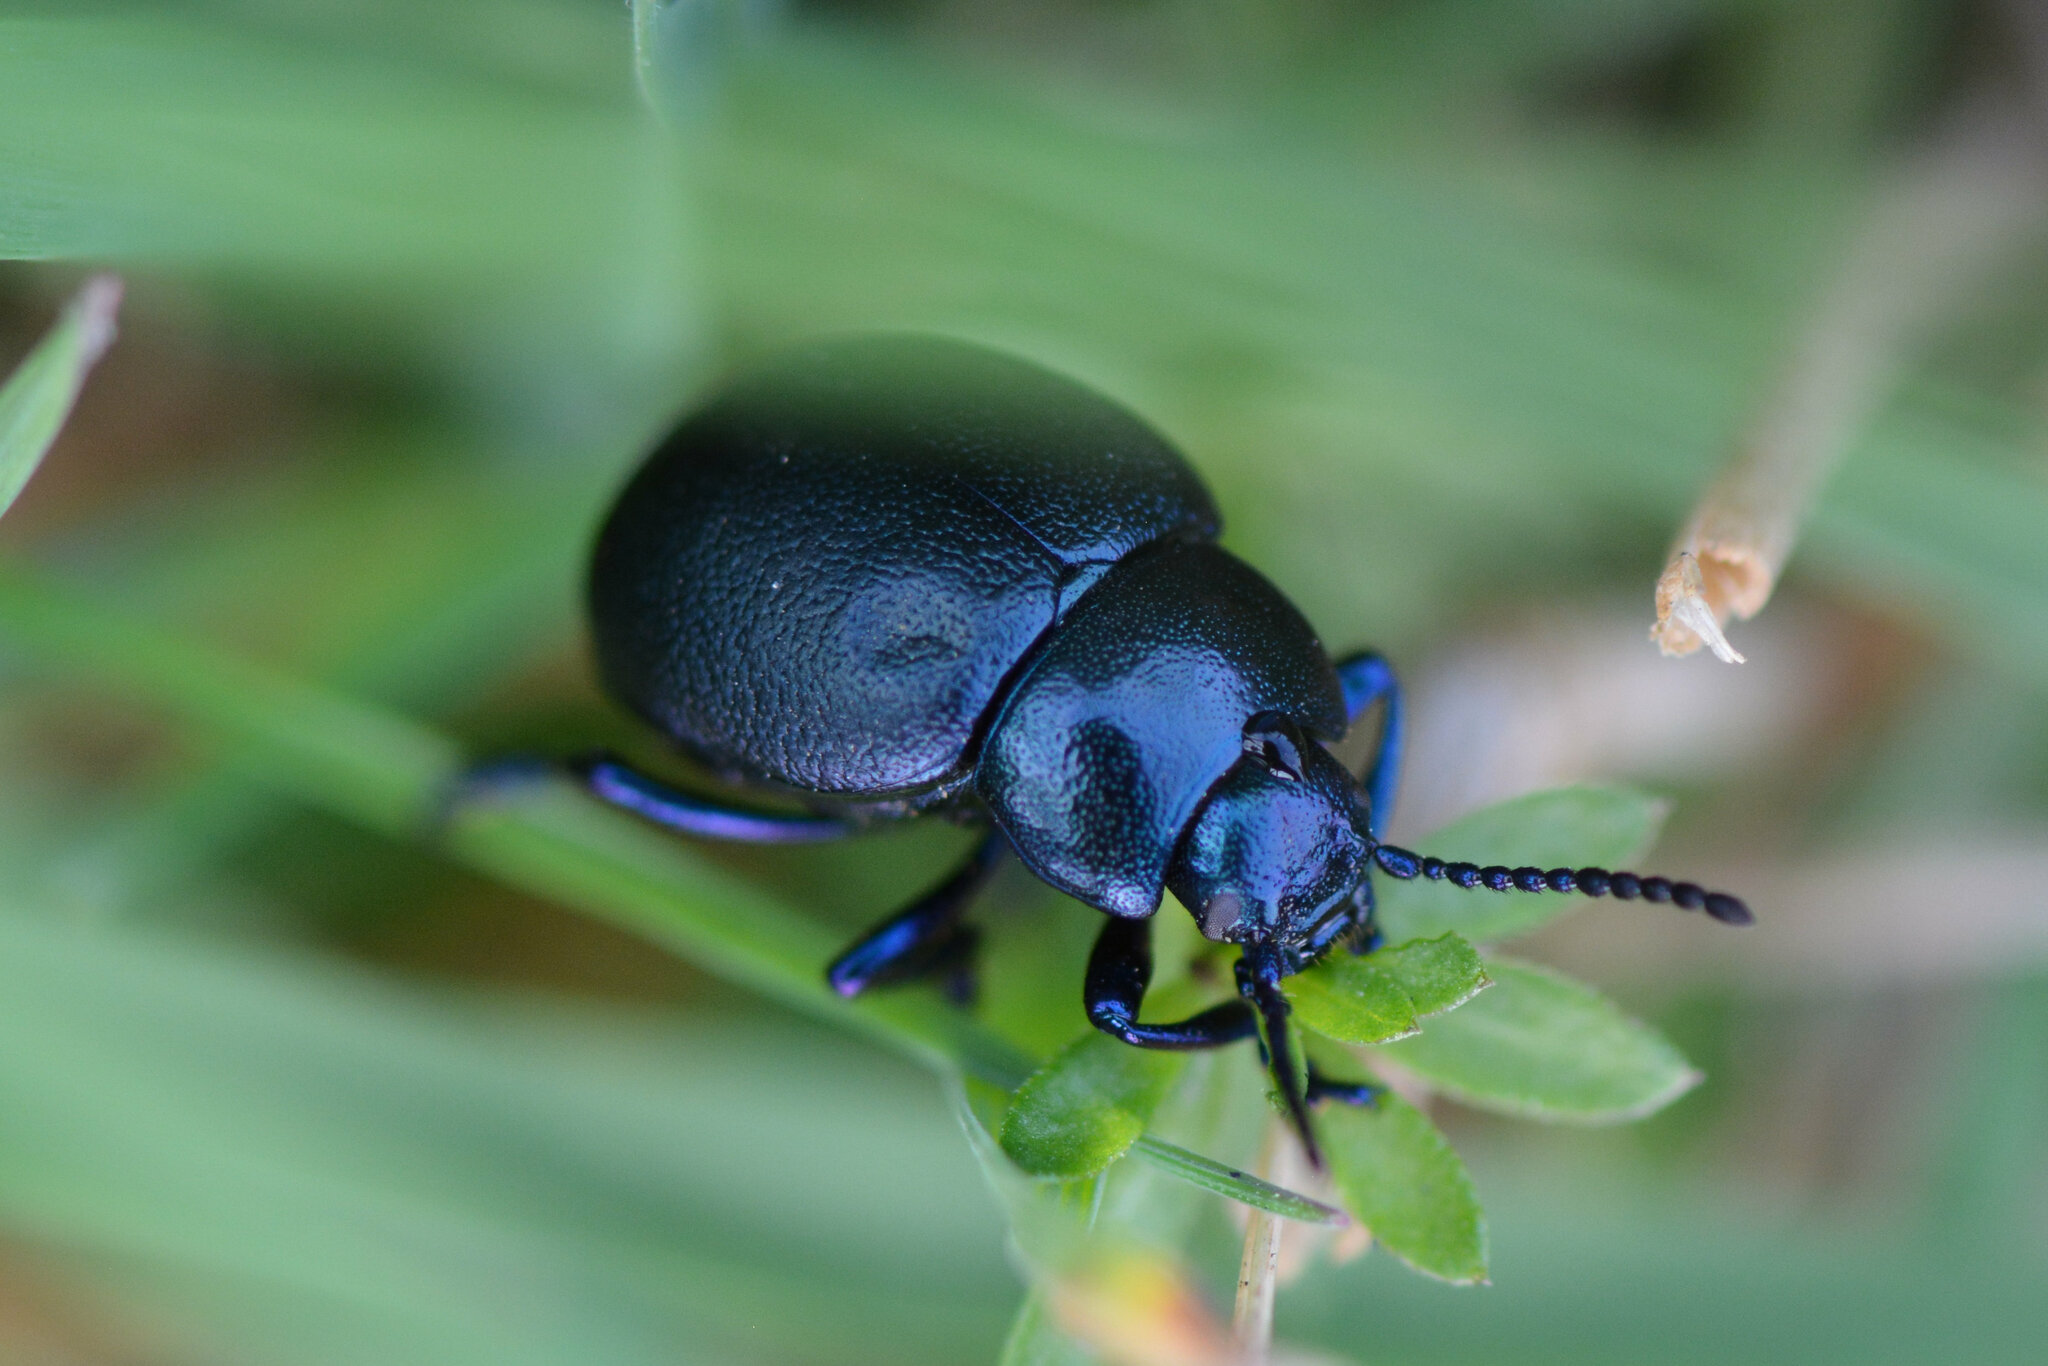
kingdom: Animalia
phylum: Arthropoda
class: Insecta
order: Coleoptera
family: Chrysomelidae
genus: Timarcha
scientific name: Timarcha goettingensis
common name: Small bloody-nosed beetle
